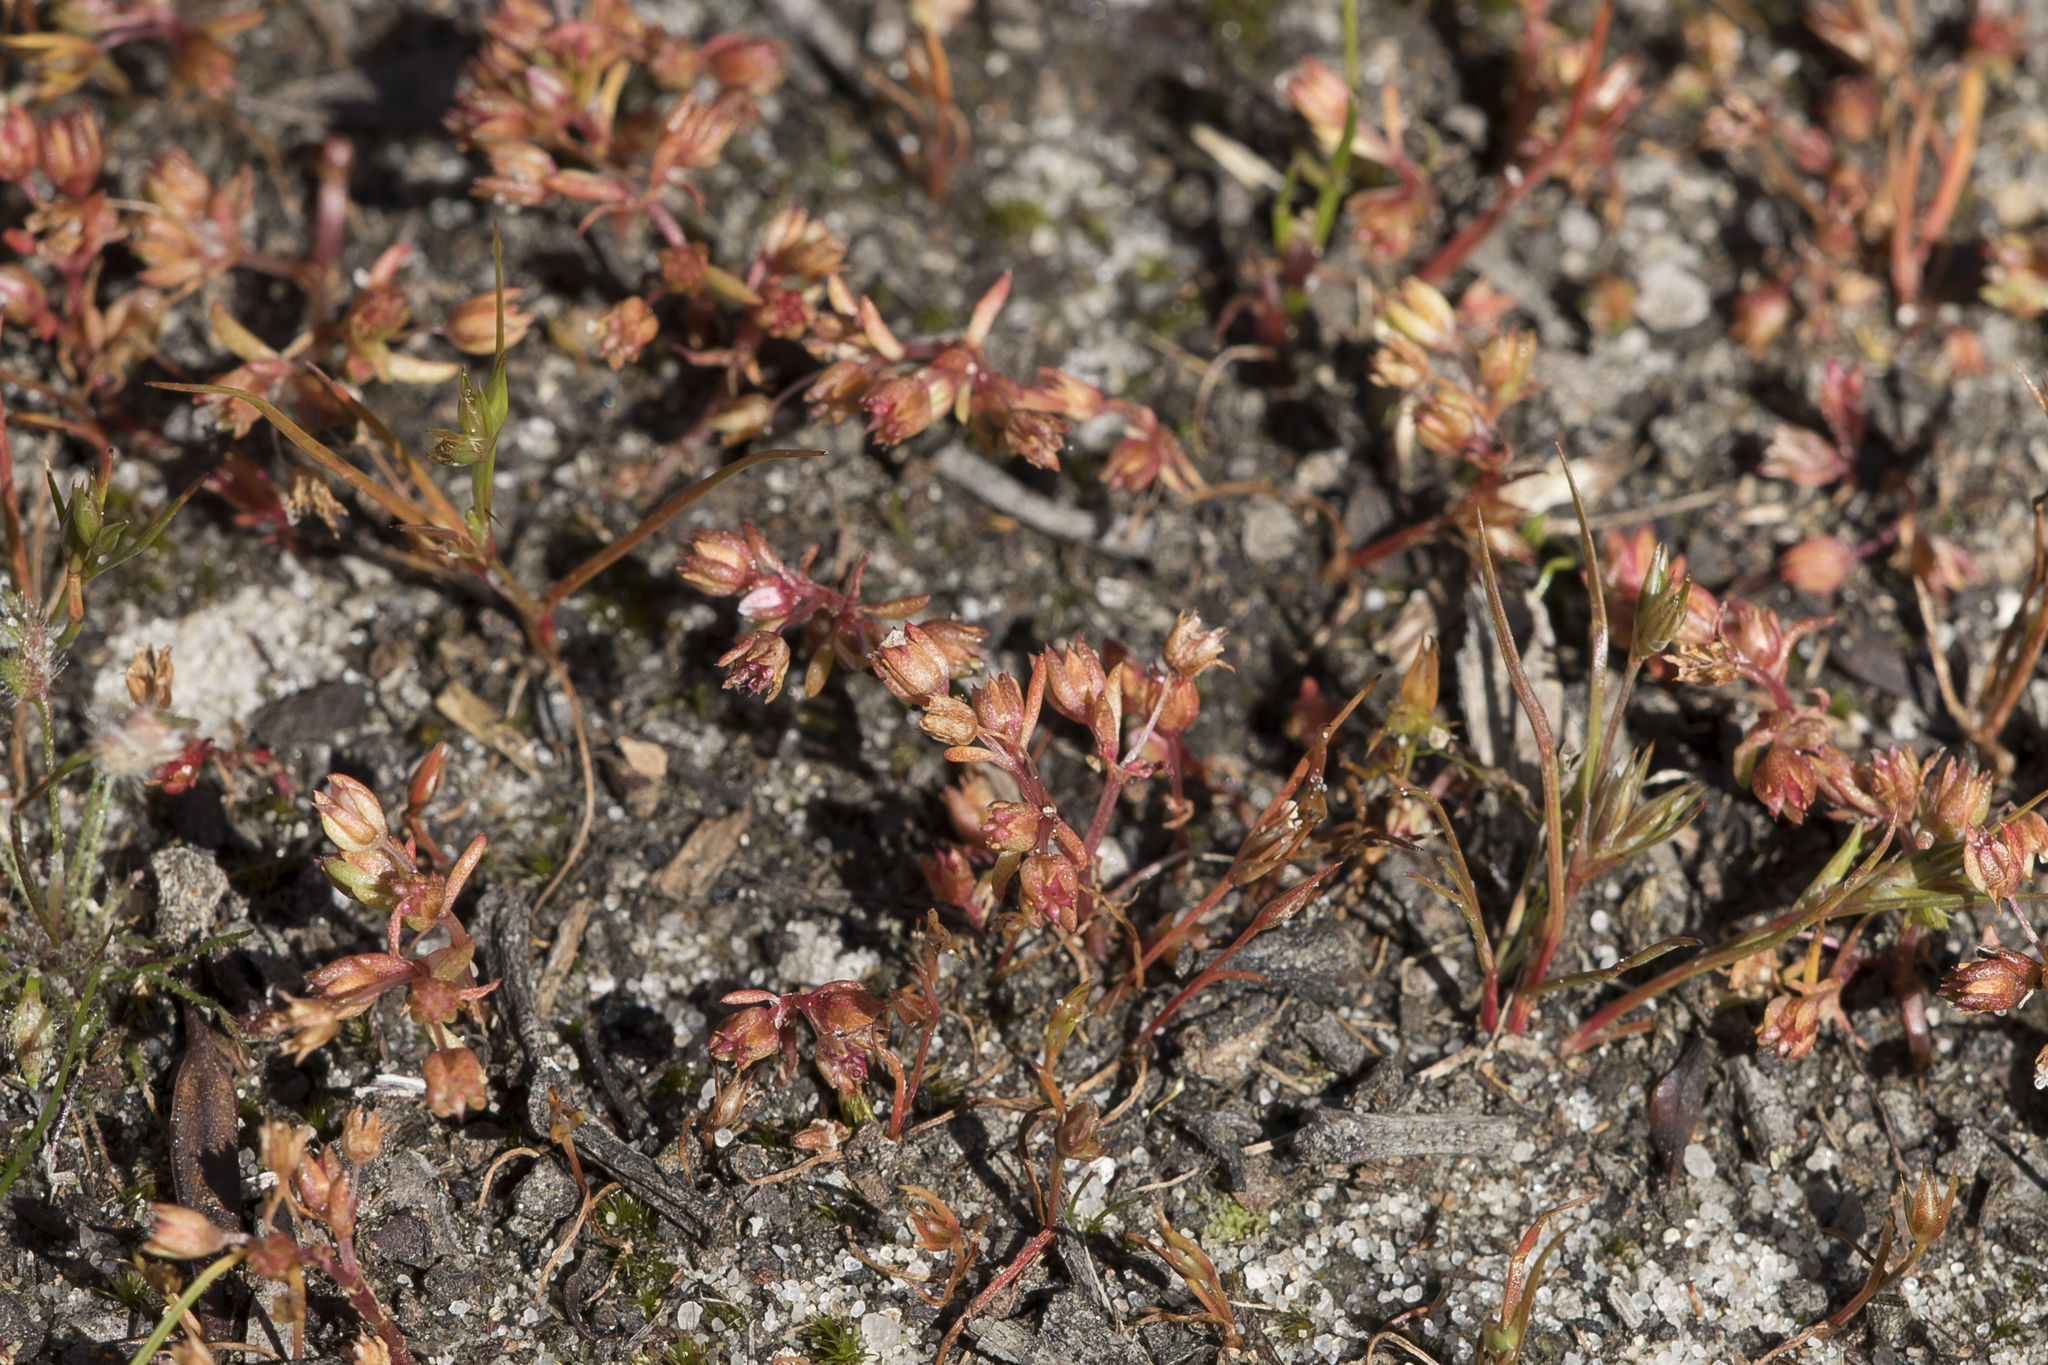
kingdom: Plantae
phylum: Tracheophyta
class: Magnoliopsida
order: Saxifragales
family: Crassulaceae
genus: Crassula
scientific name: Crassula decumbens
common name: Scilly pigmyweed
